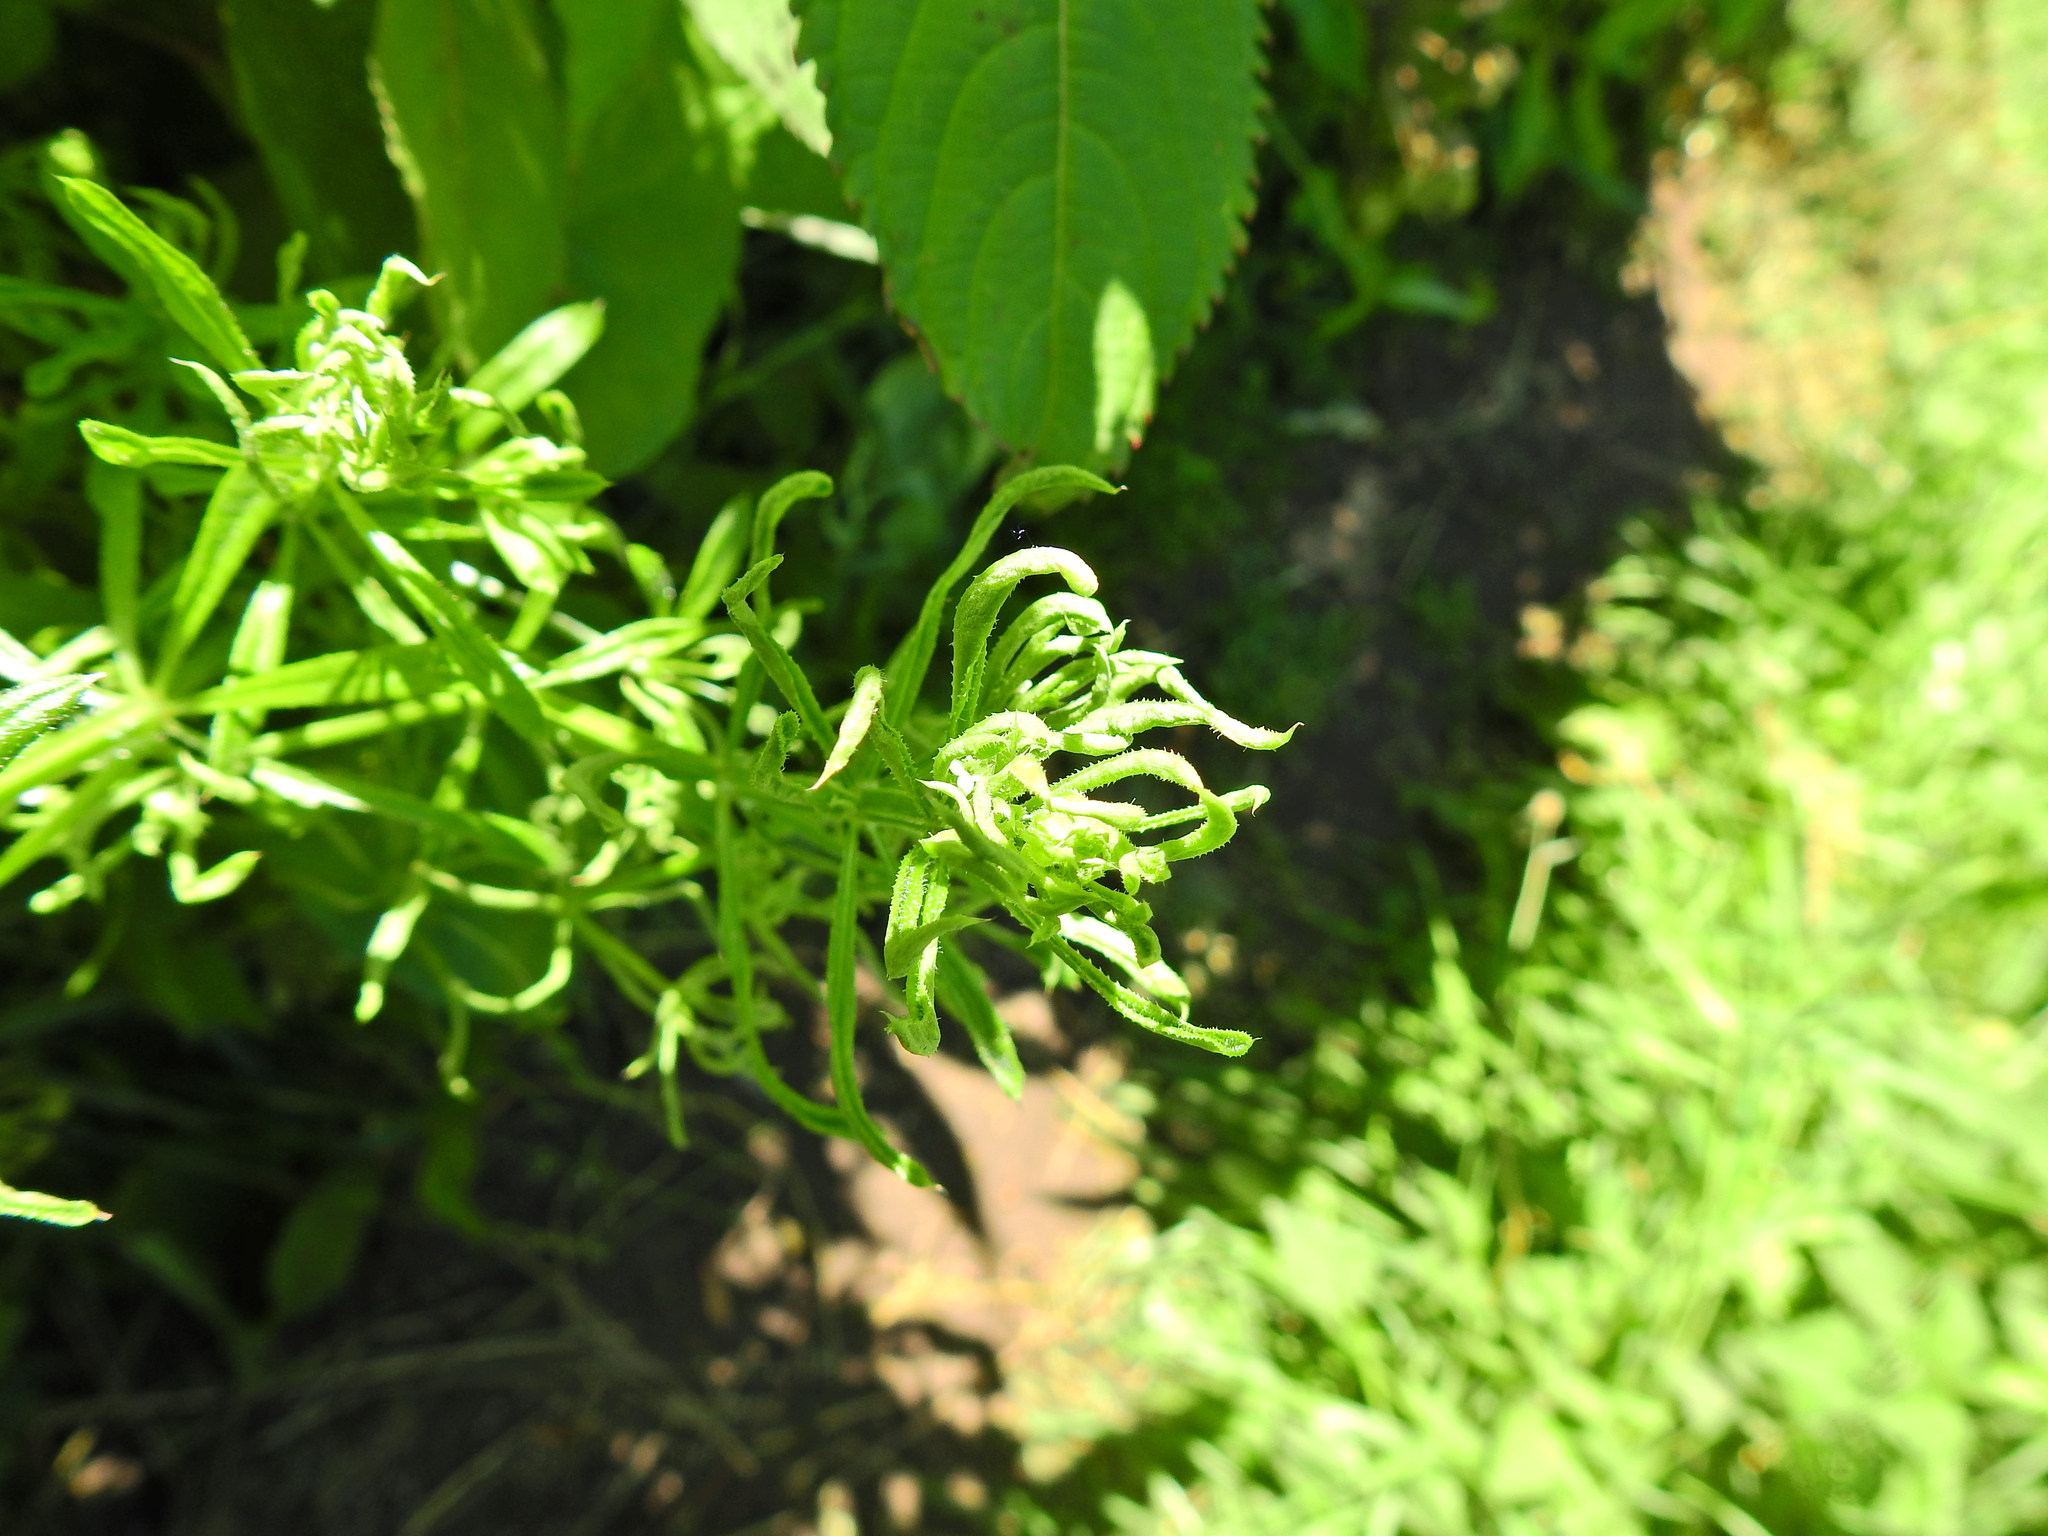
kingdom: Animalia
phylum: Arthropoda
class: Arachnida
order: Trombidiformes
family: Eriophyidae
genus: Cecidophyes
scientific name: Cecidophyes rouhollahi
